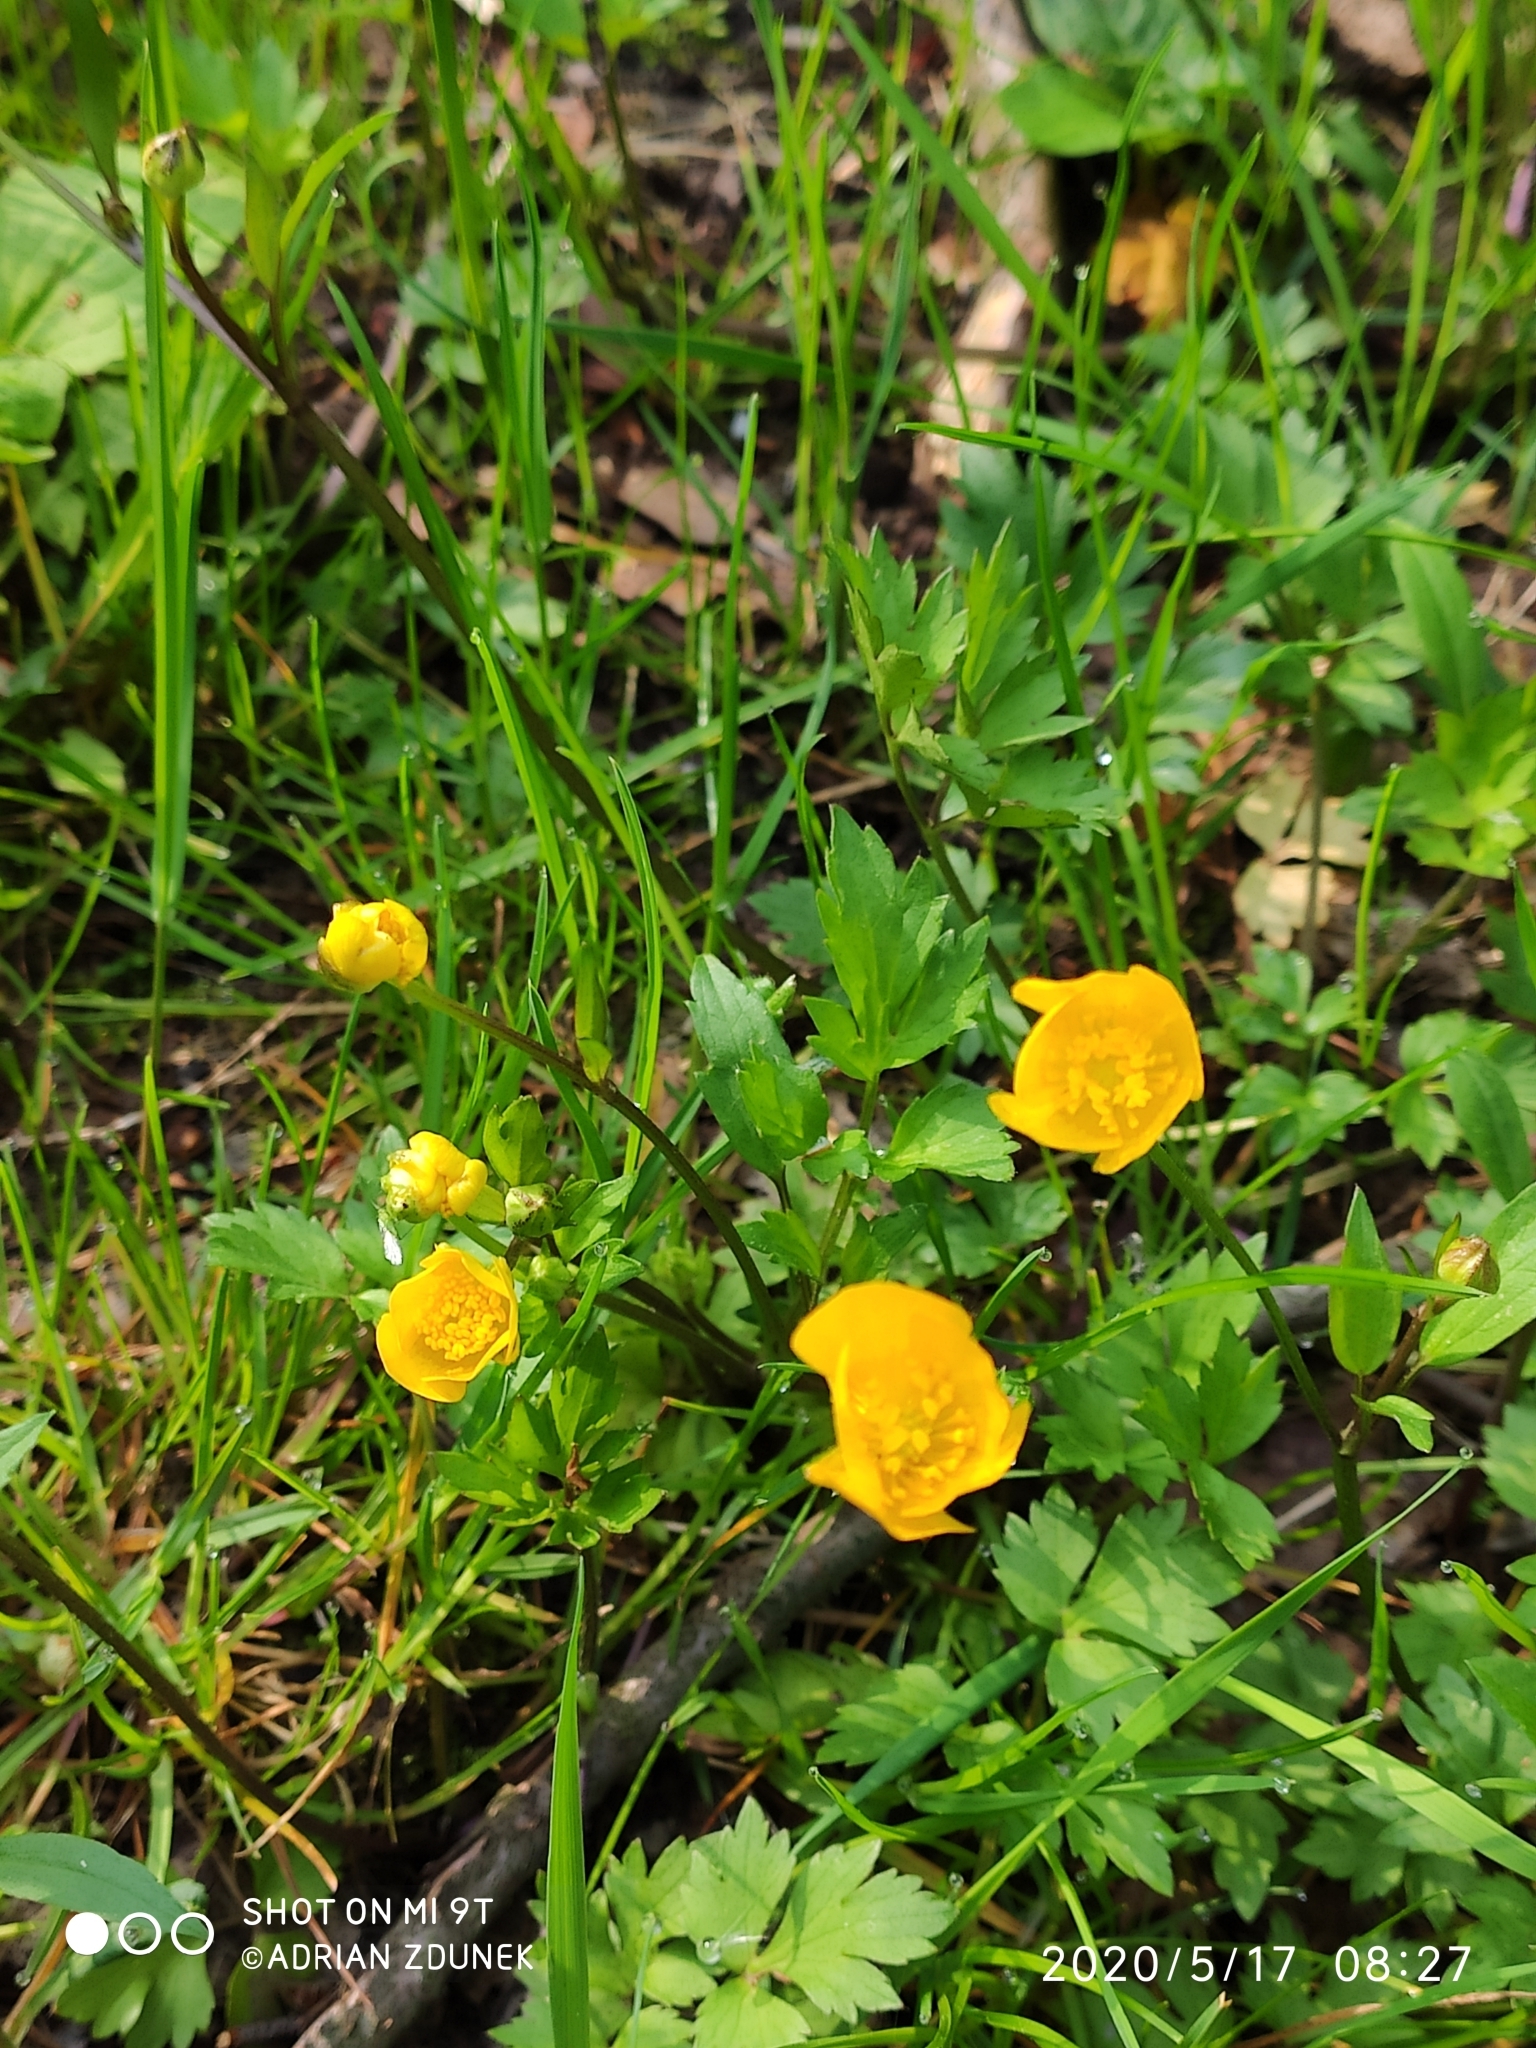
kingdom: Plantae
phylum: Tracheophyta
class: Magnoliopsida
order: Ranunculales
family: Ranunculaceae
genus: Ranunculus
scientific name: Ranunculus repens
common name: Creeping buttercup
